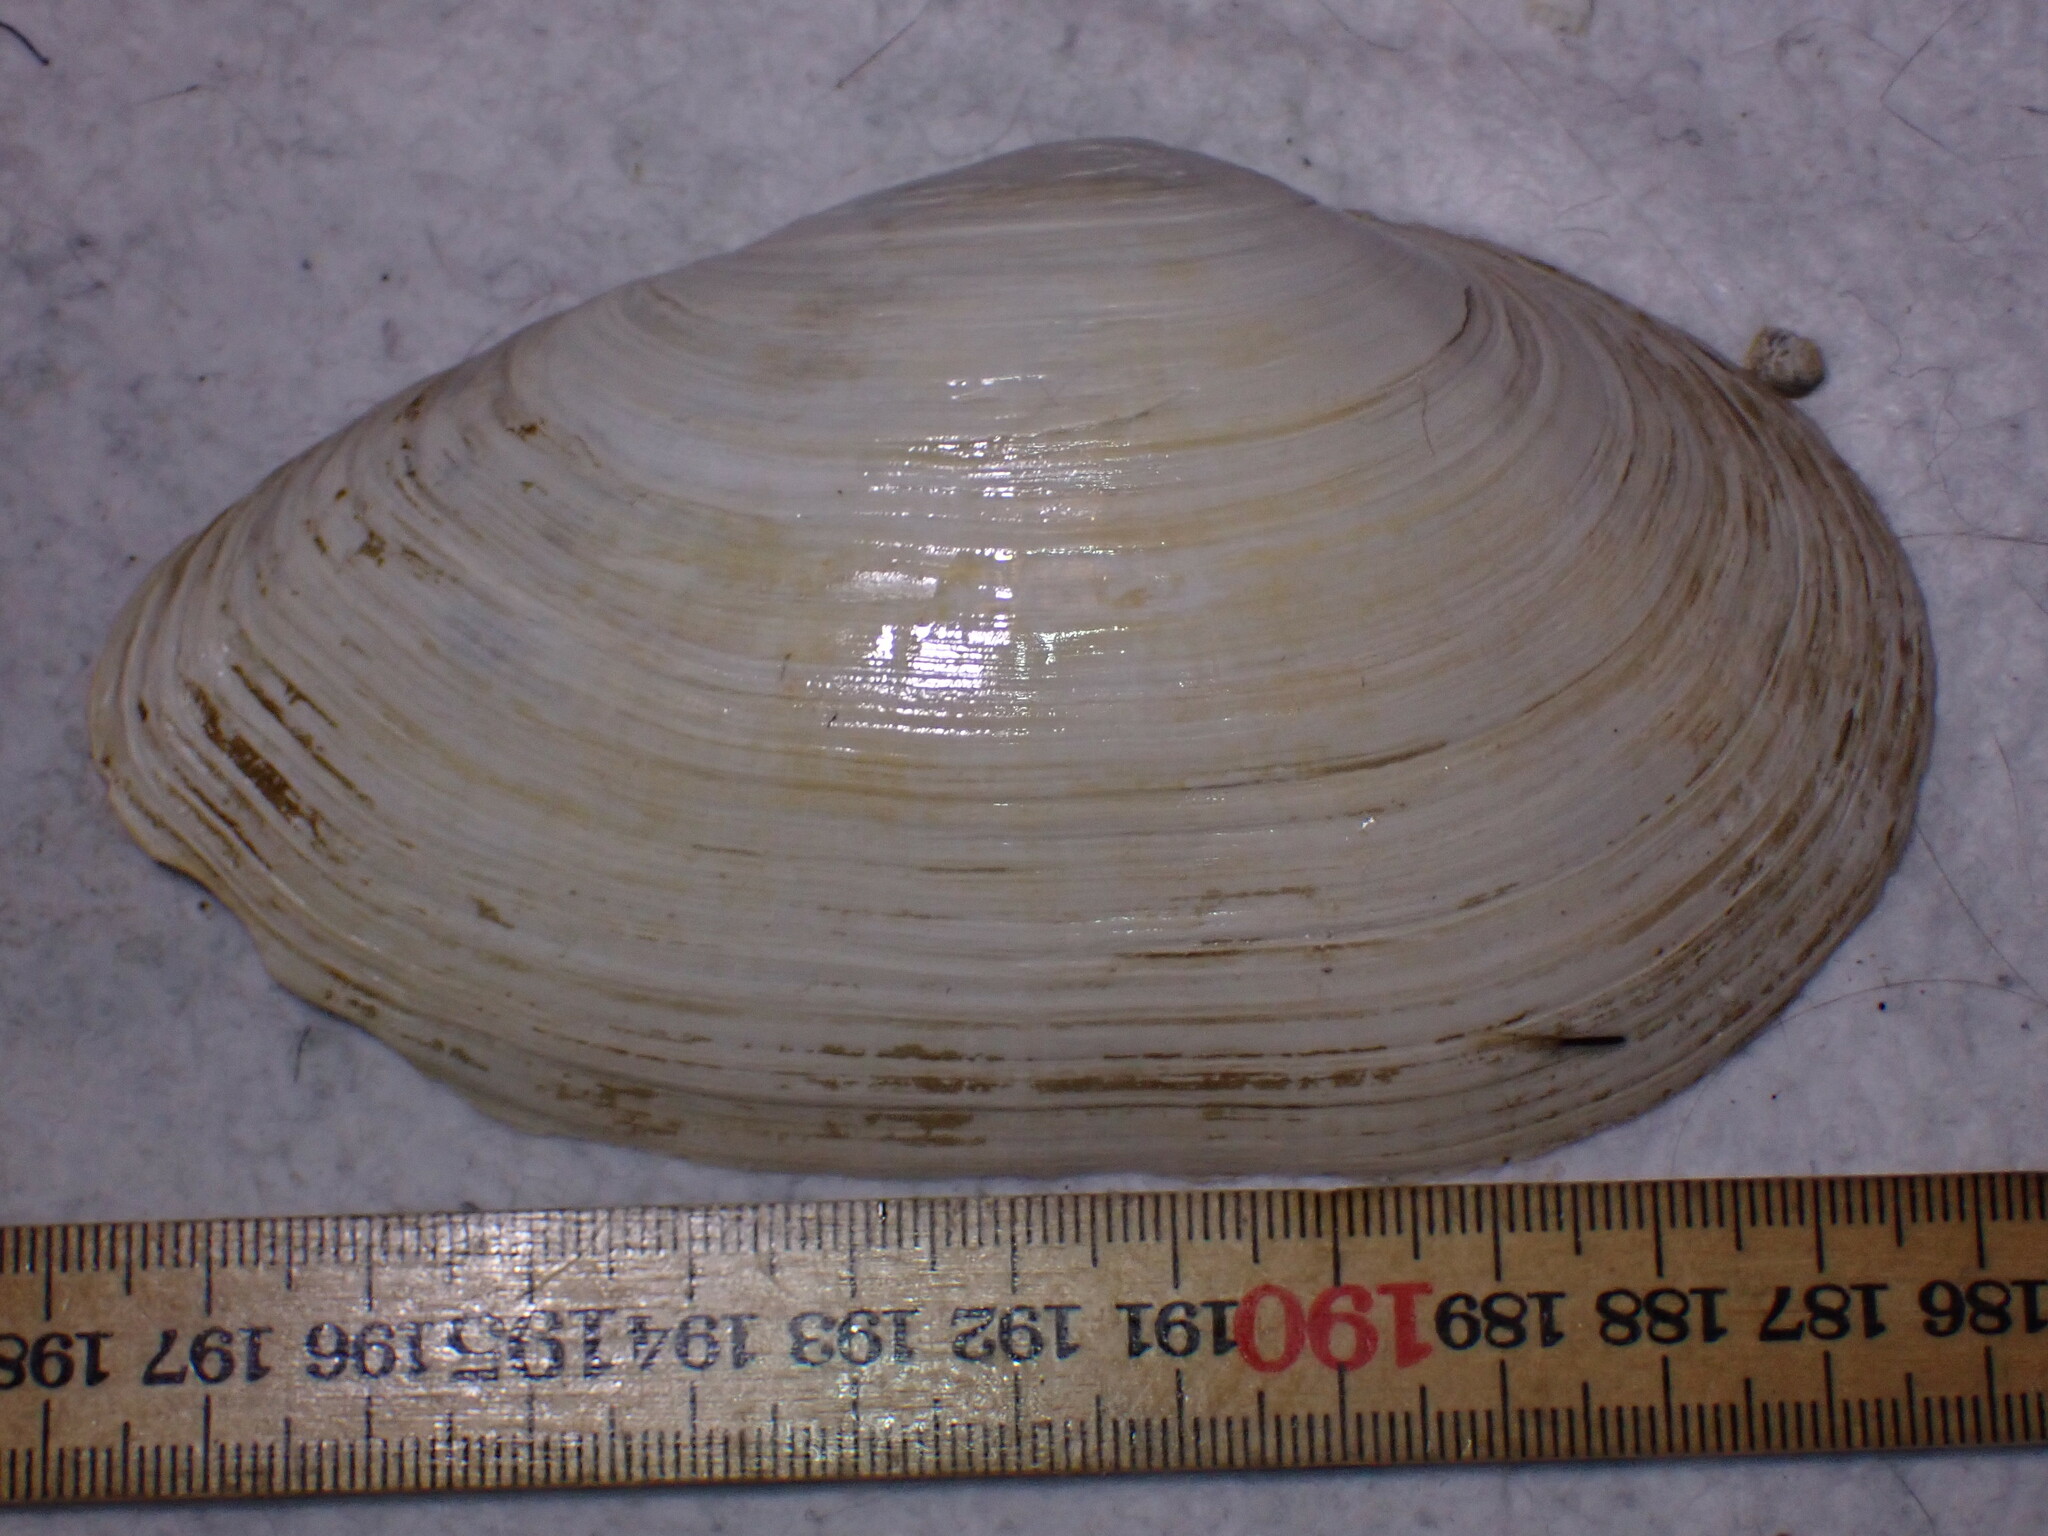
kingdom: Animalia
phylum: Mollusca
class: Bivalvia
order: Myida
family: Myidae
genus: Mya
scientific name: Mya arenaria
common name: Soft-shelled clam
